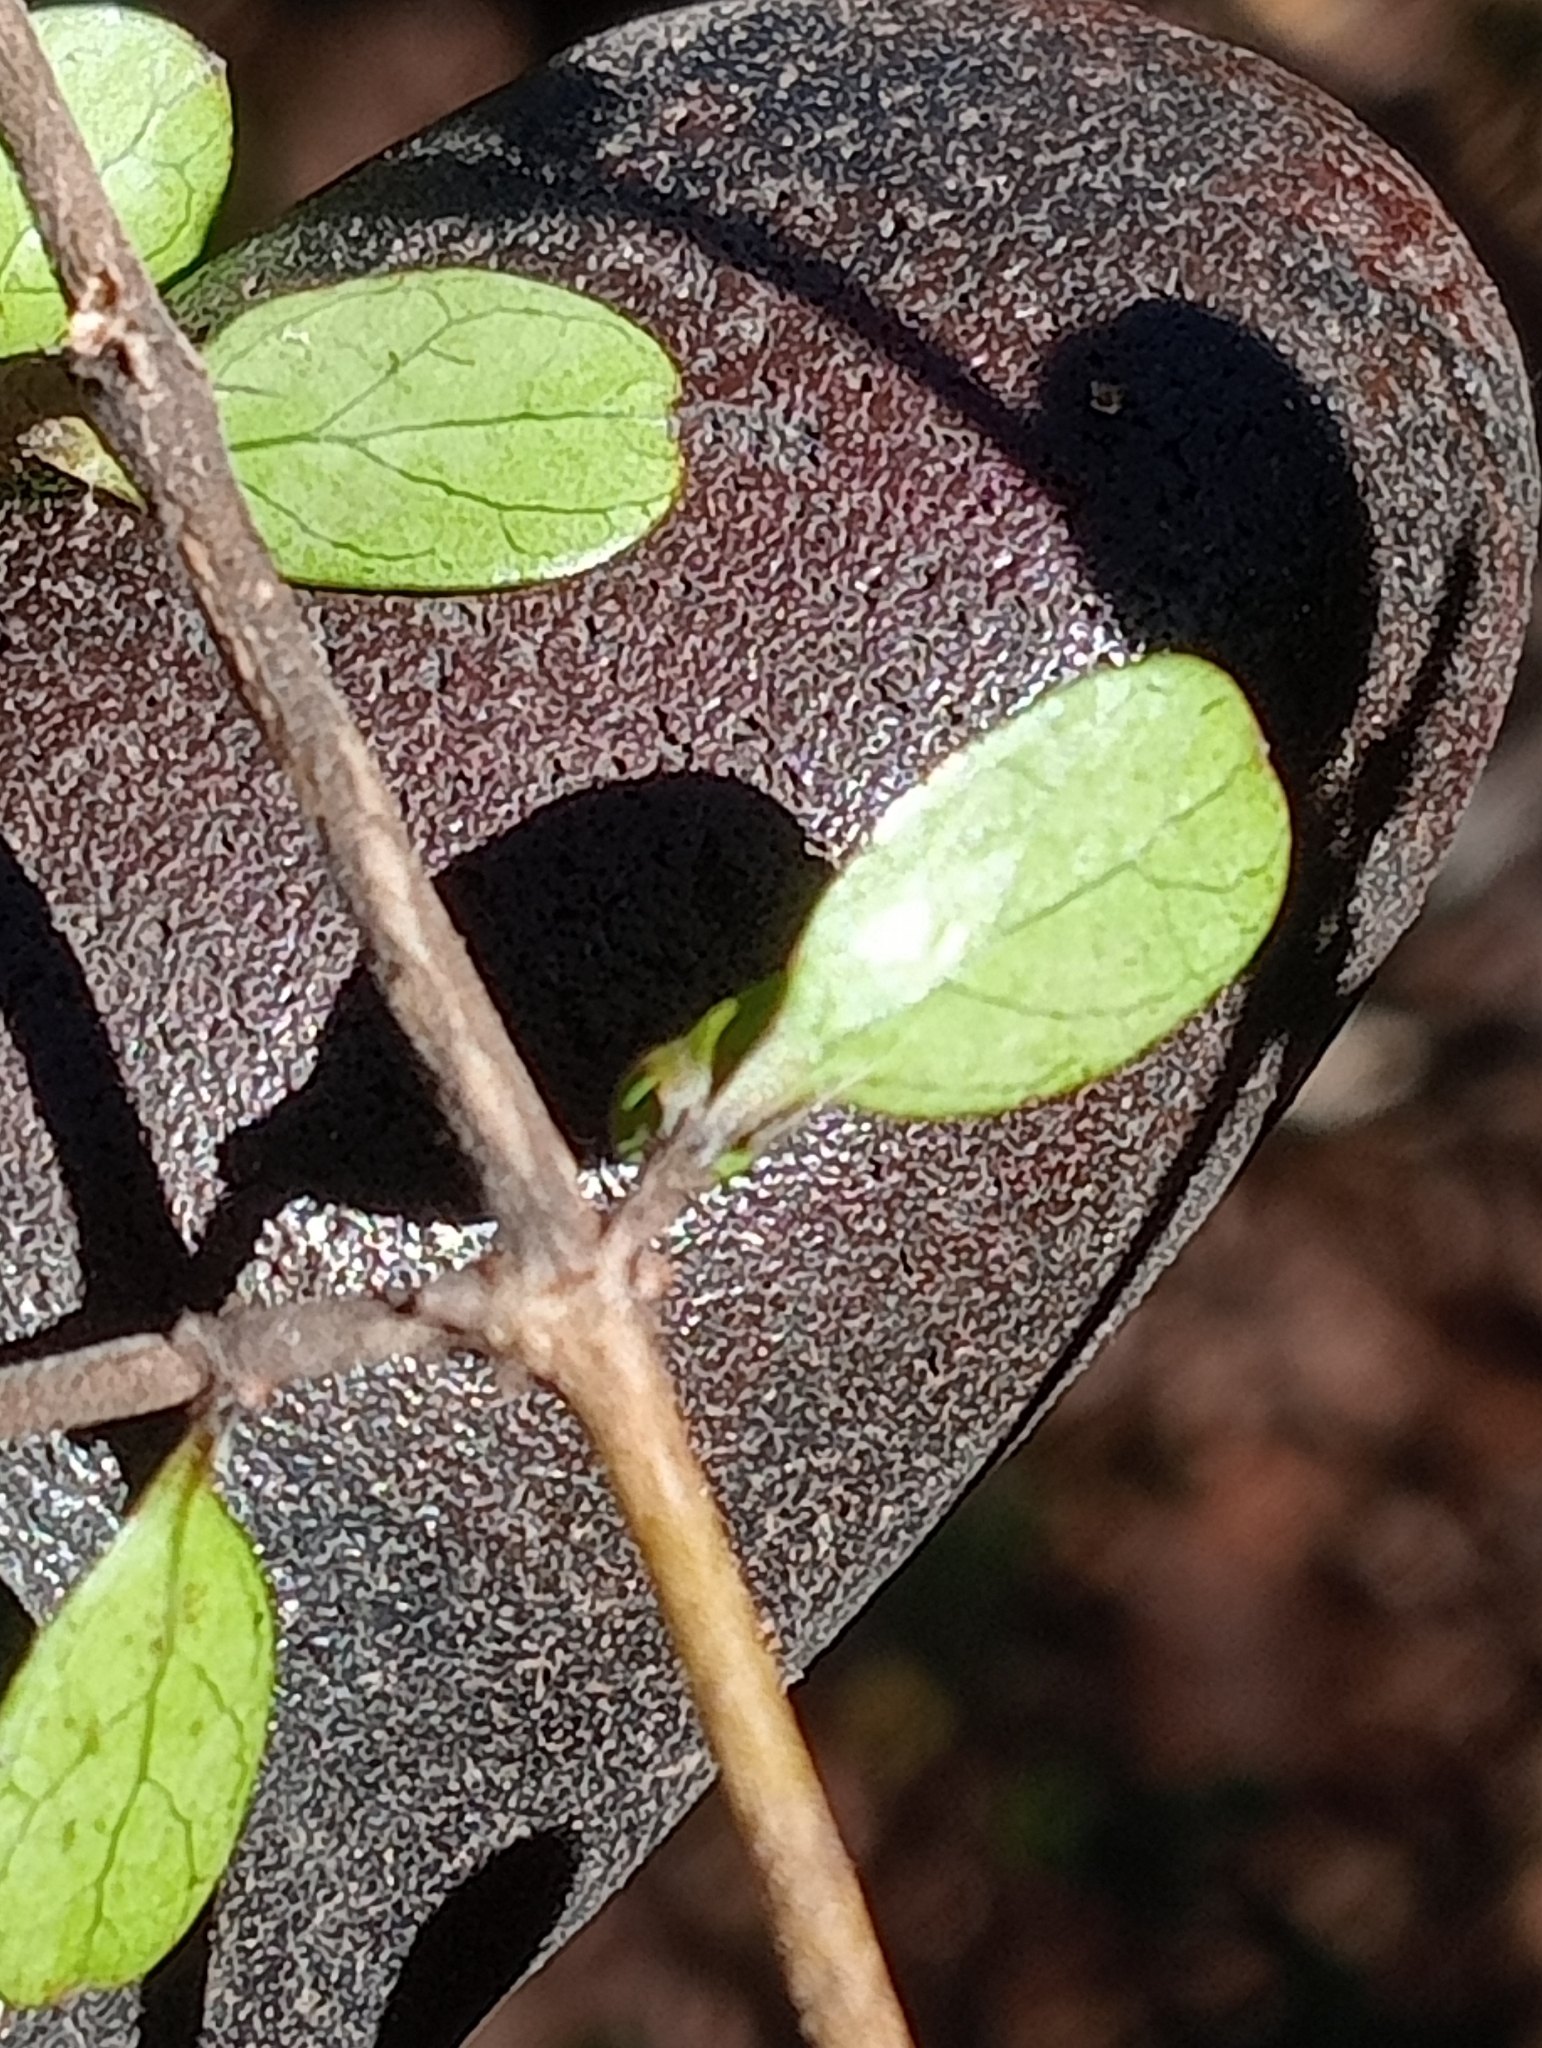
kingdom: Plantae
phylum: Tracheophyta
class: Magnoliopsida
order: Gentianales
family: Rubiaceae
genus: Coprosma
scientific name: Coprosma rigida
